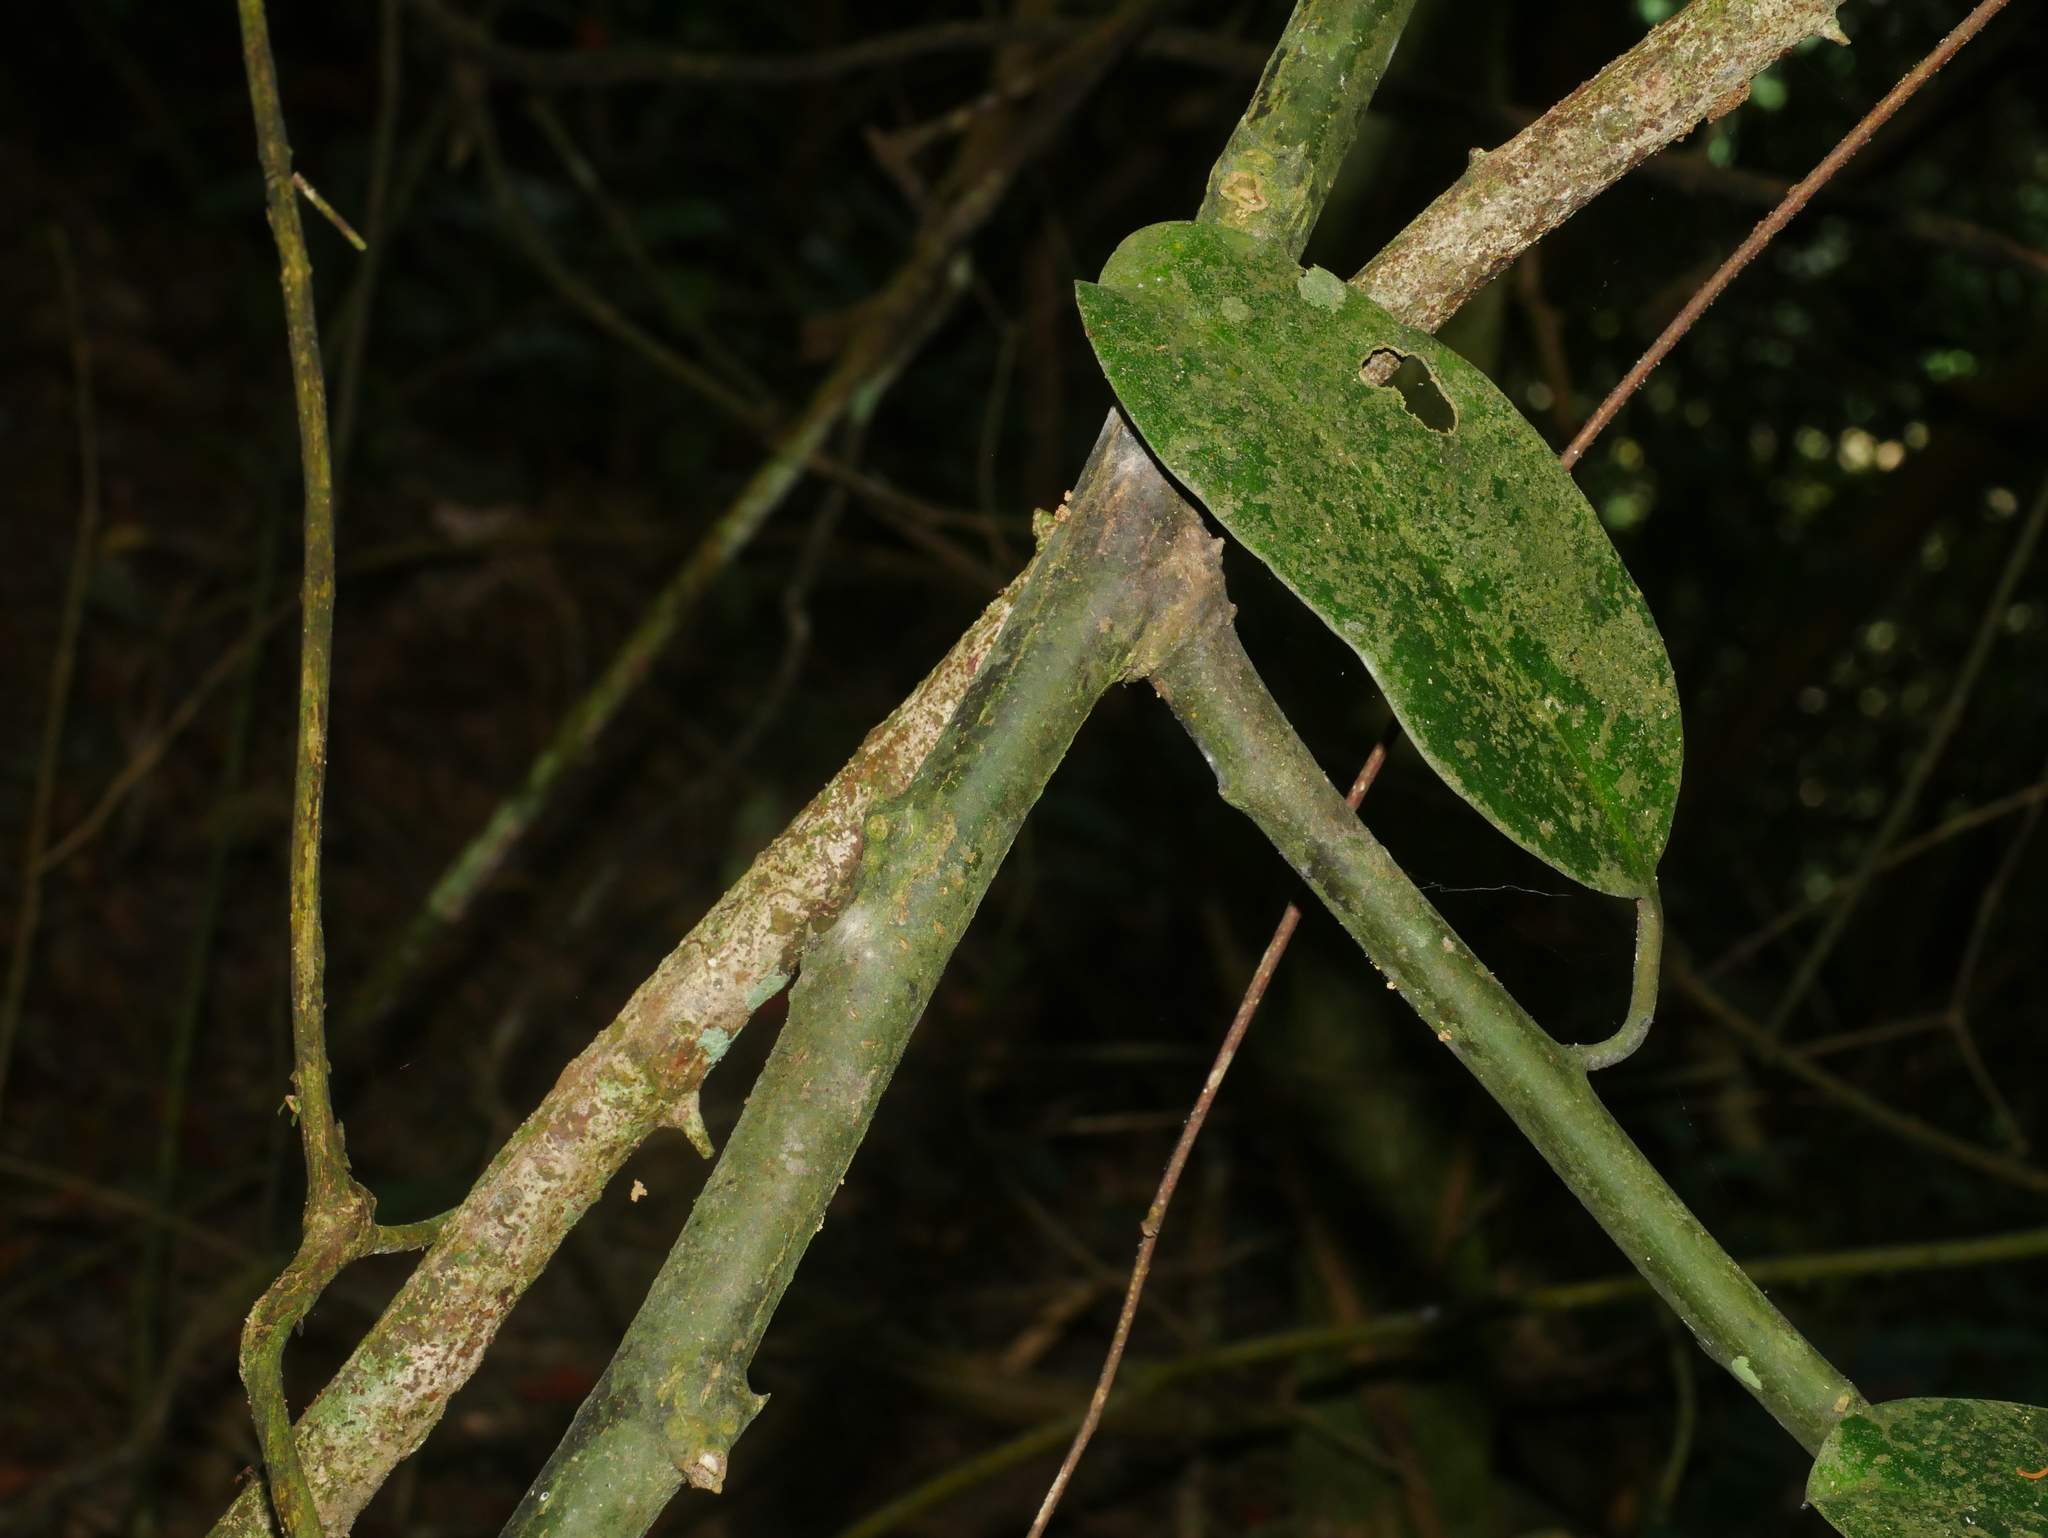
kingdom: Plantae
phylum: Tracheophyta
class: Magnoliopsida
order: Brassicales
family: Capparaceae
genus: Capparis
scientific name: Capparis formosana
